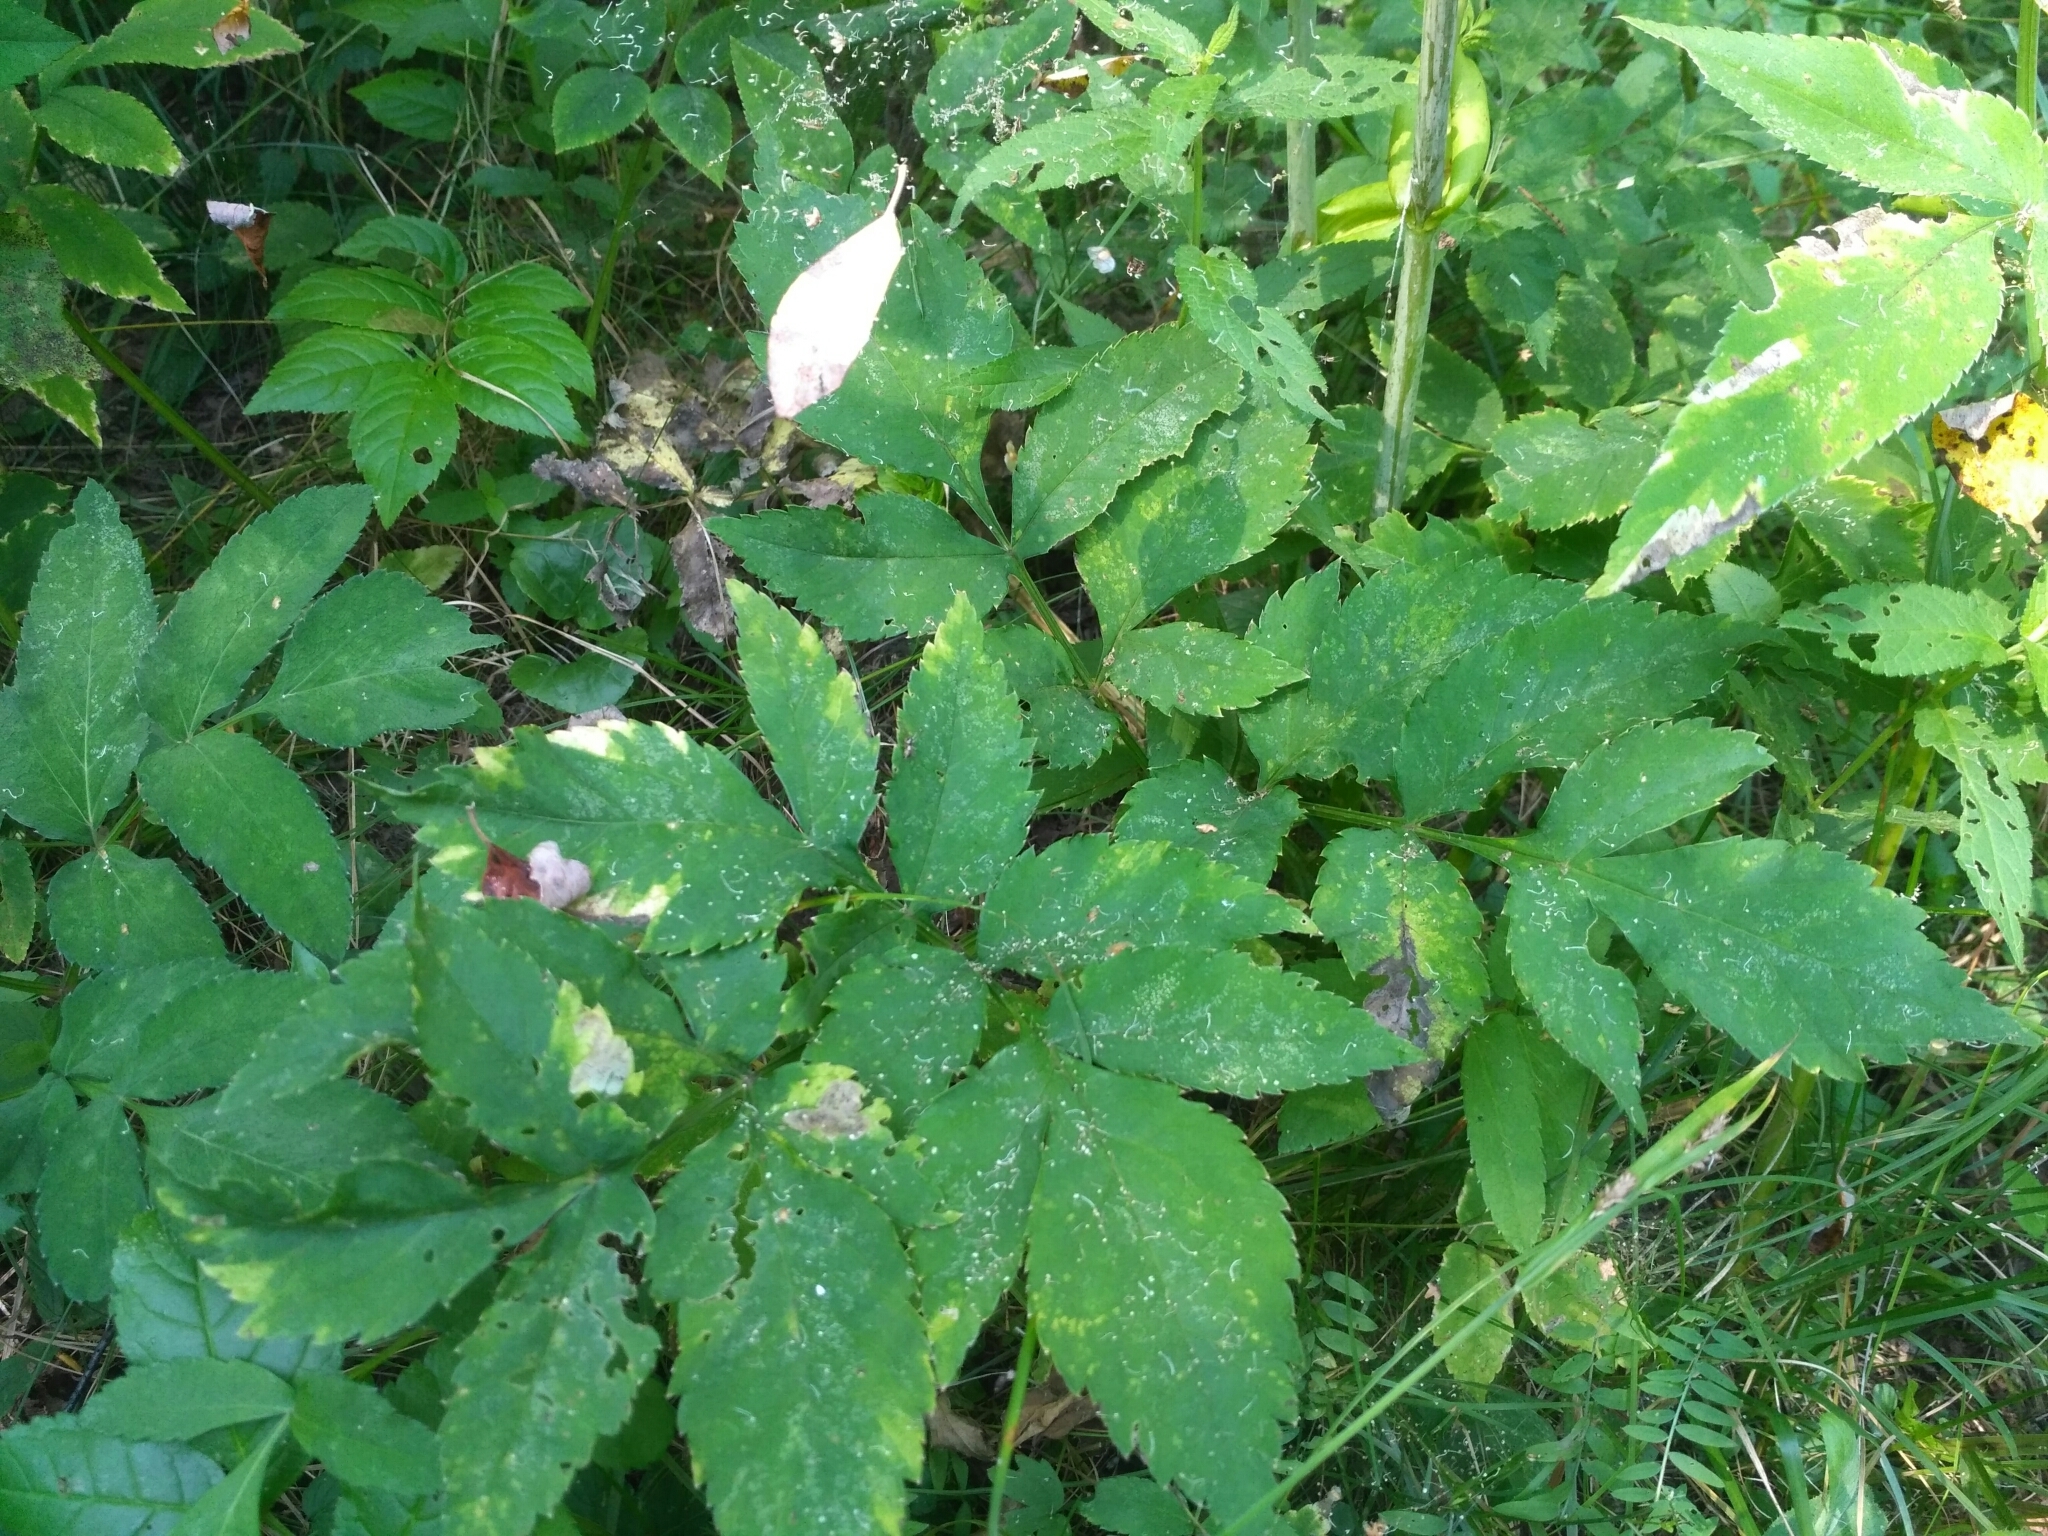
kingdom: Plantae
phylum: Tracheophyta
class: Magnoliopsida
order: Apiales
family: Apiaceae
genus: Angelica
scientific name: Angelica sylvestris
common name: Wild angelica
